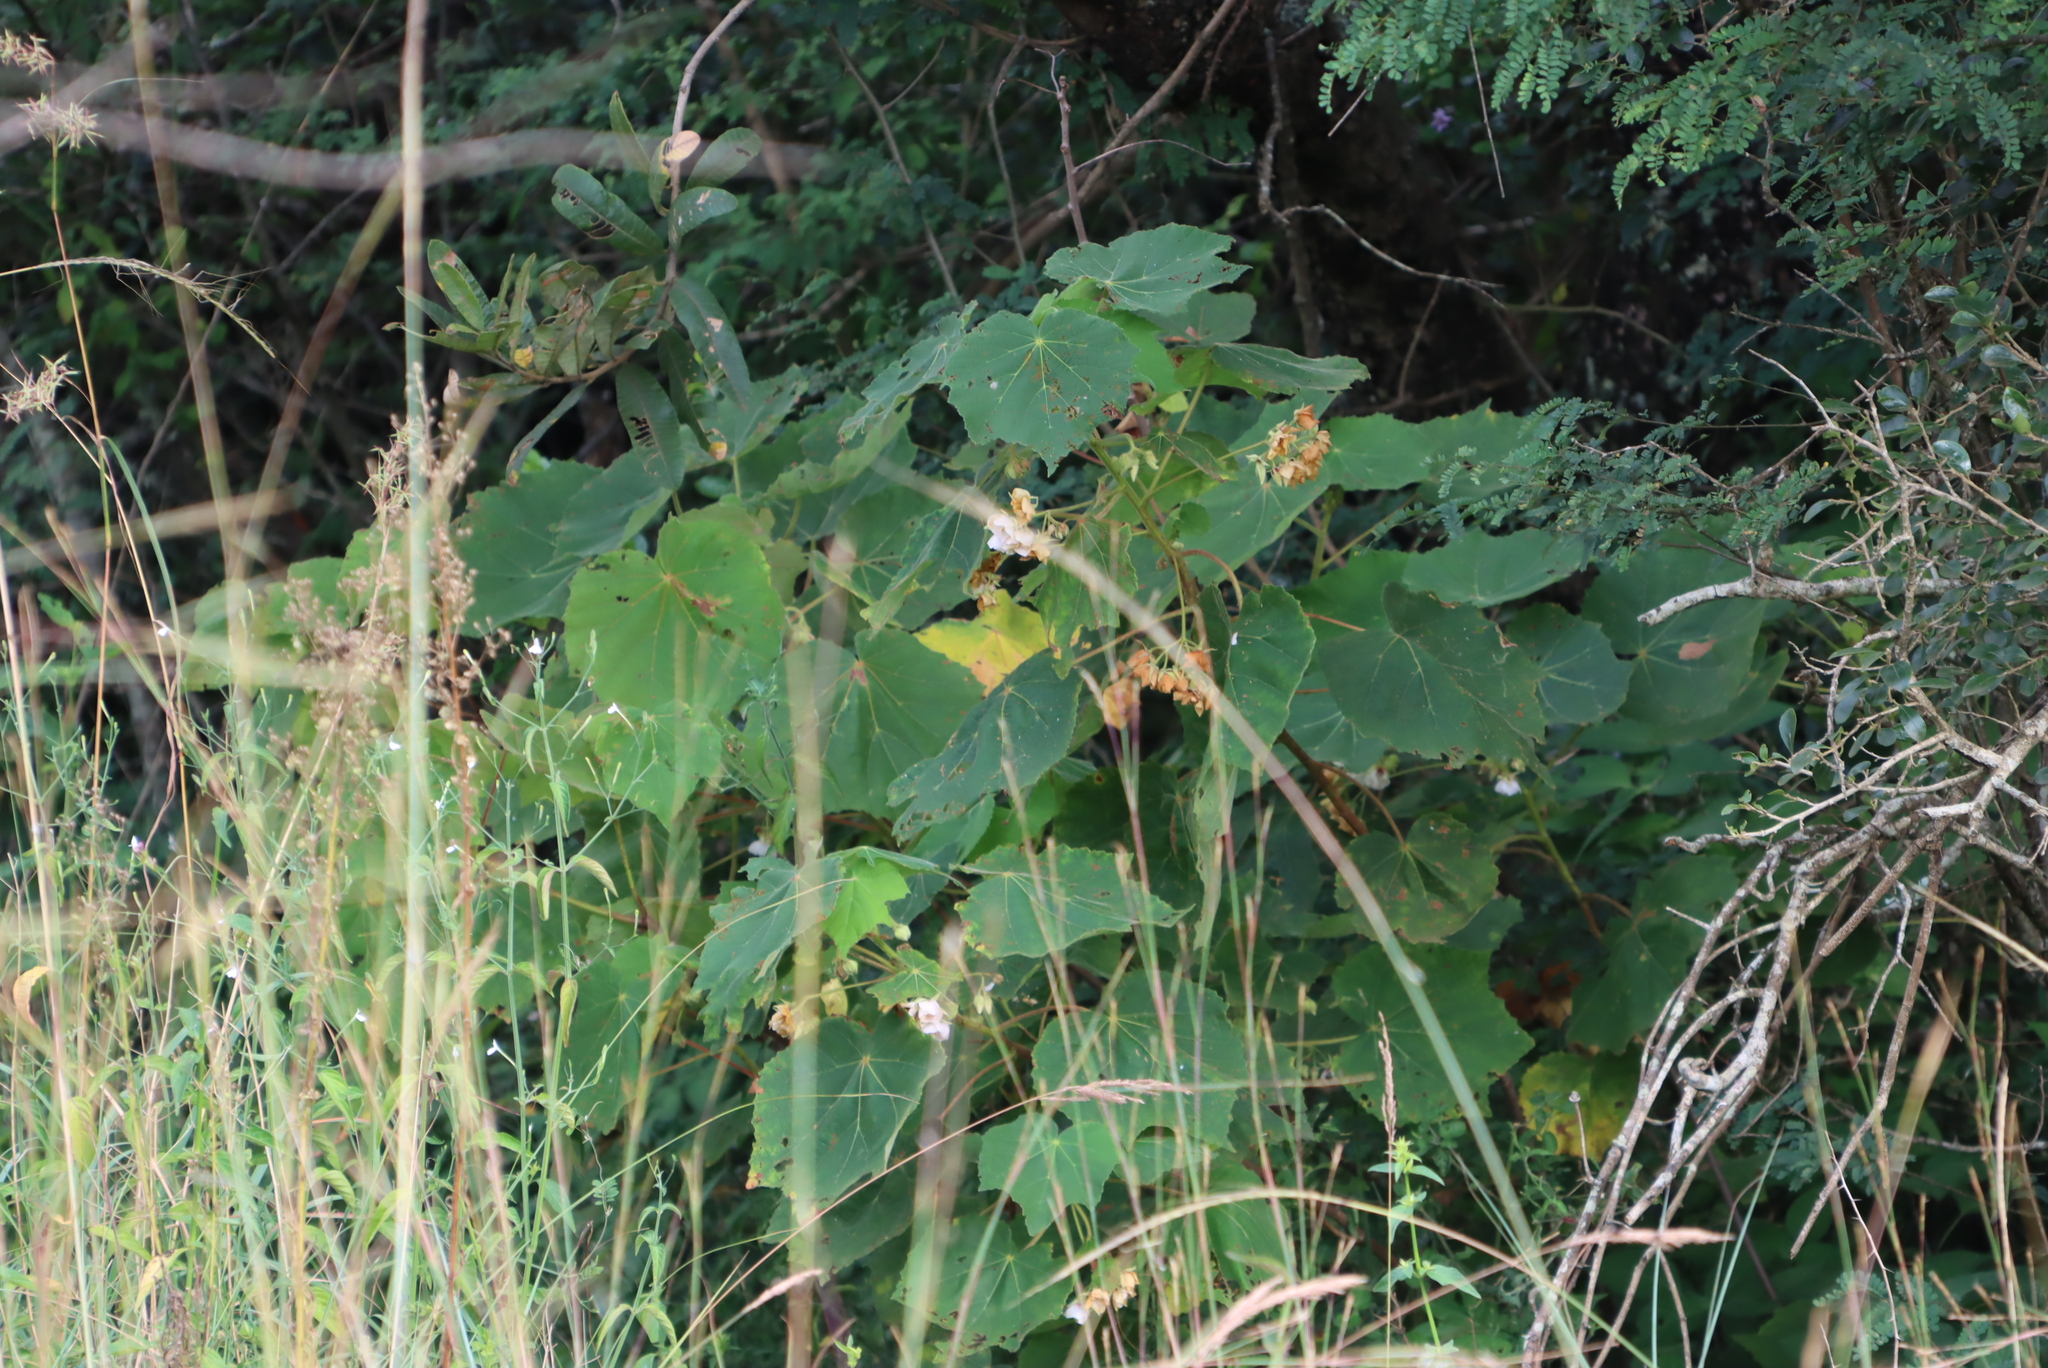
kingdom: Plantae
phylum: Tracheophyta
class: Magnoliopsida
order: Malvales
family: Malvaceae
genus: Dombeya
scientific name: Dombeya burgessiae
